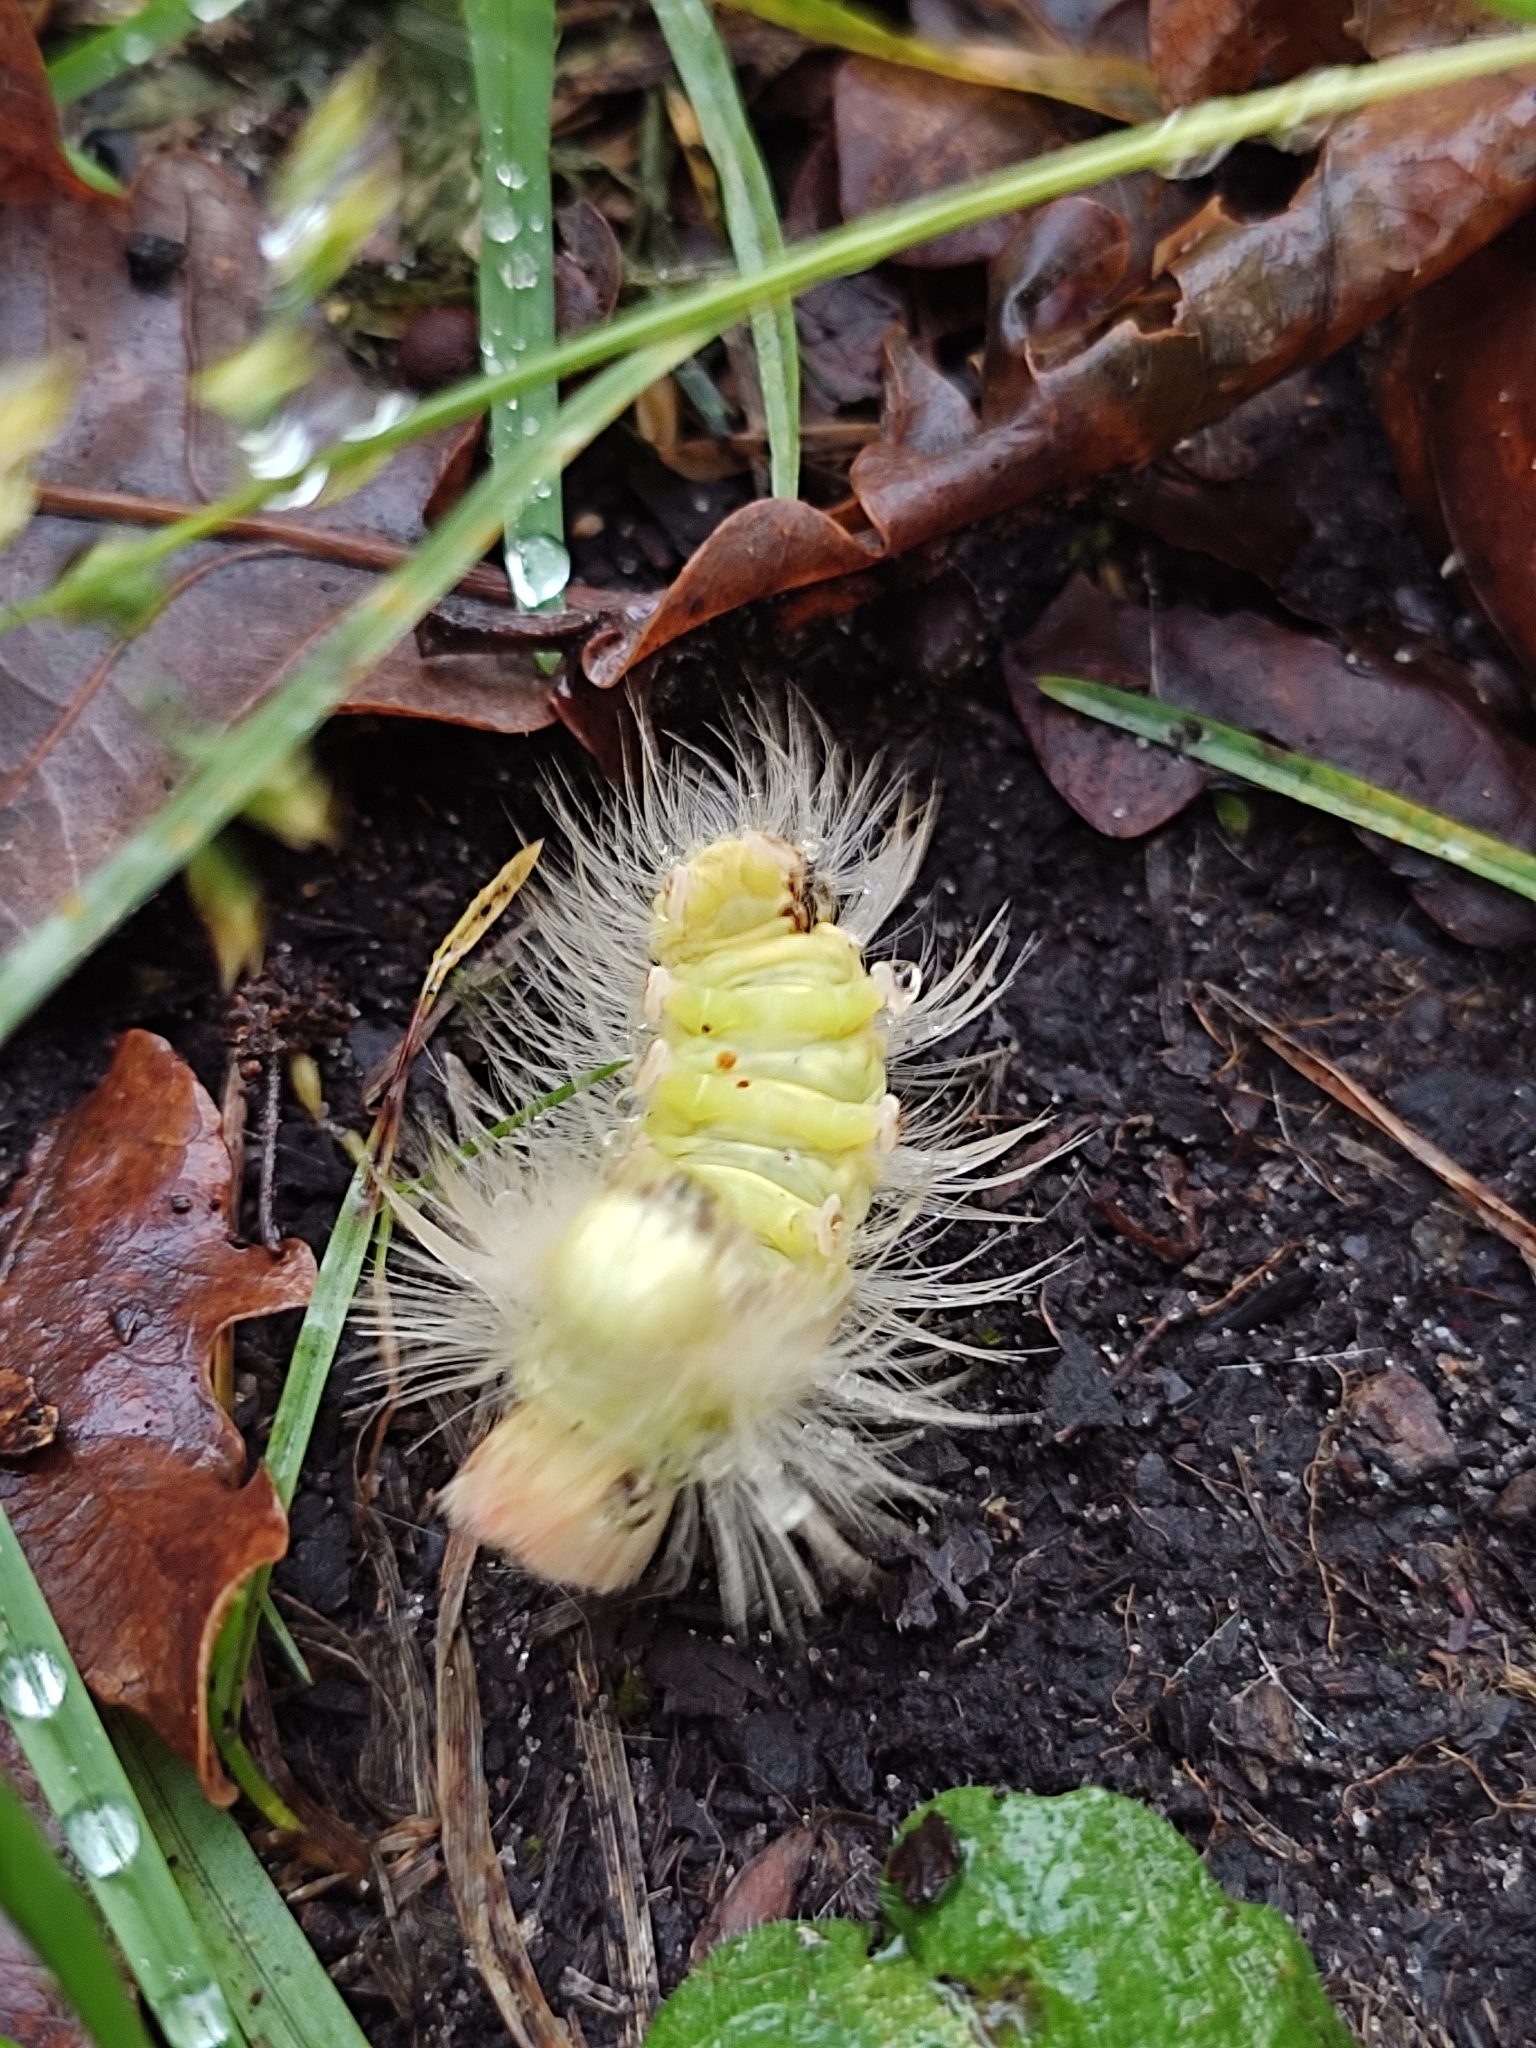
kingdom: Animalia
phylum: Arthropoda
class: Insecta
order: Lepidoptera
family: Erebidae
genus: Calliteara
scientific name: Calliteara pudibunda
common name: Pale tussock
